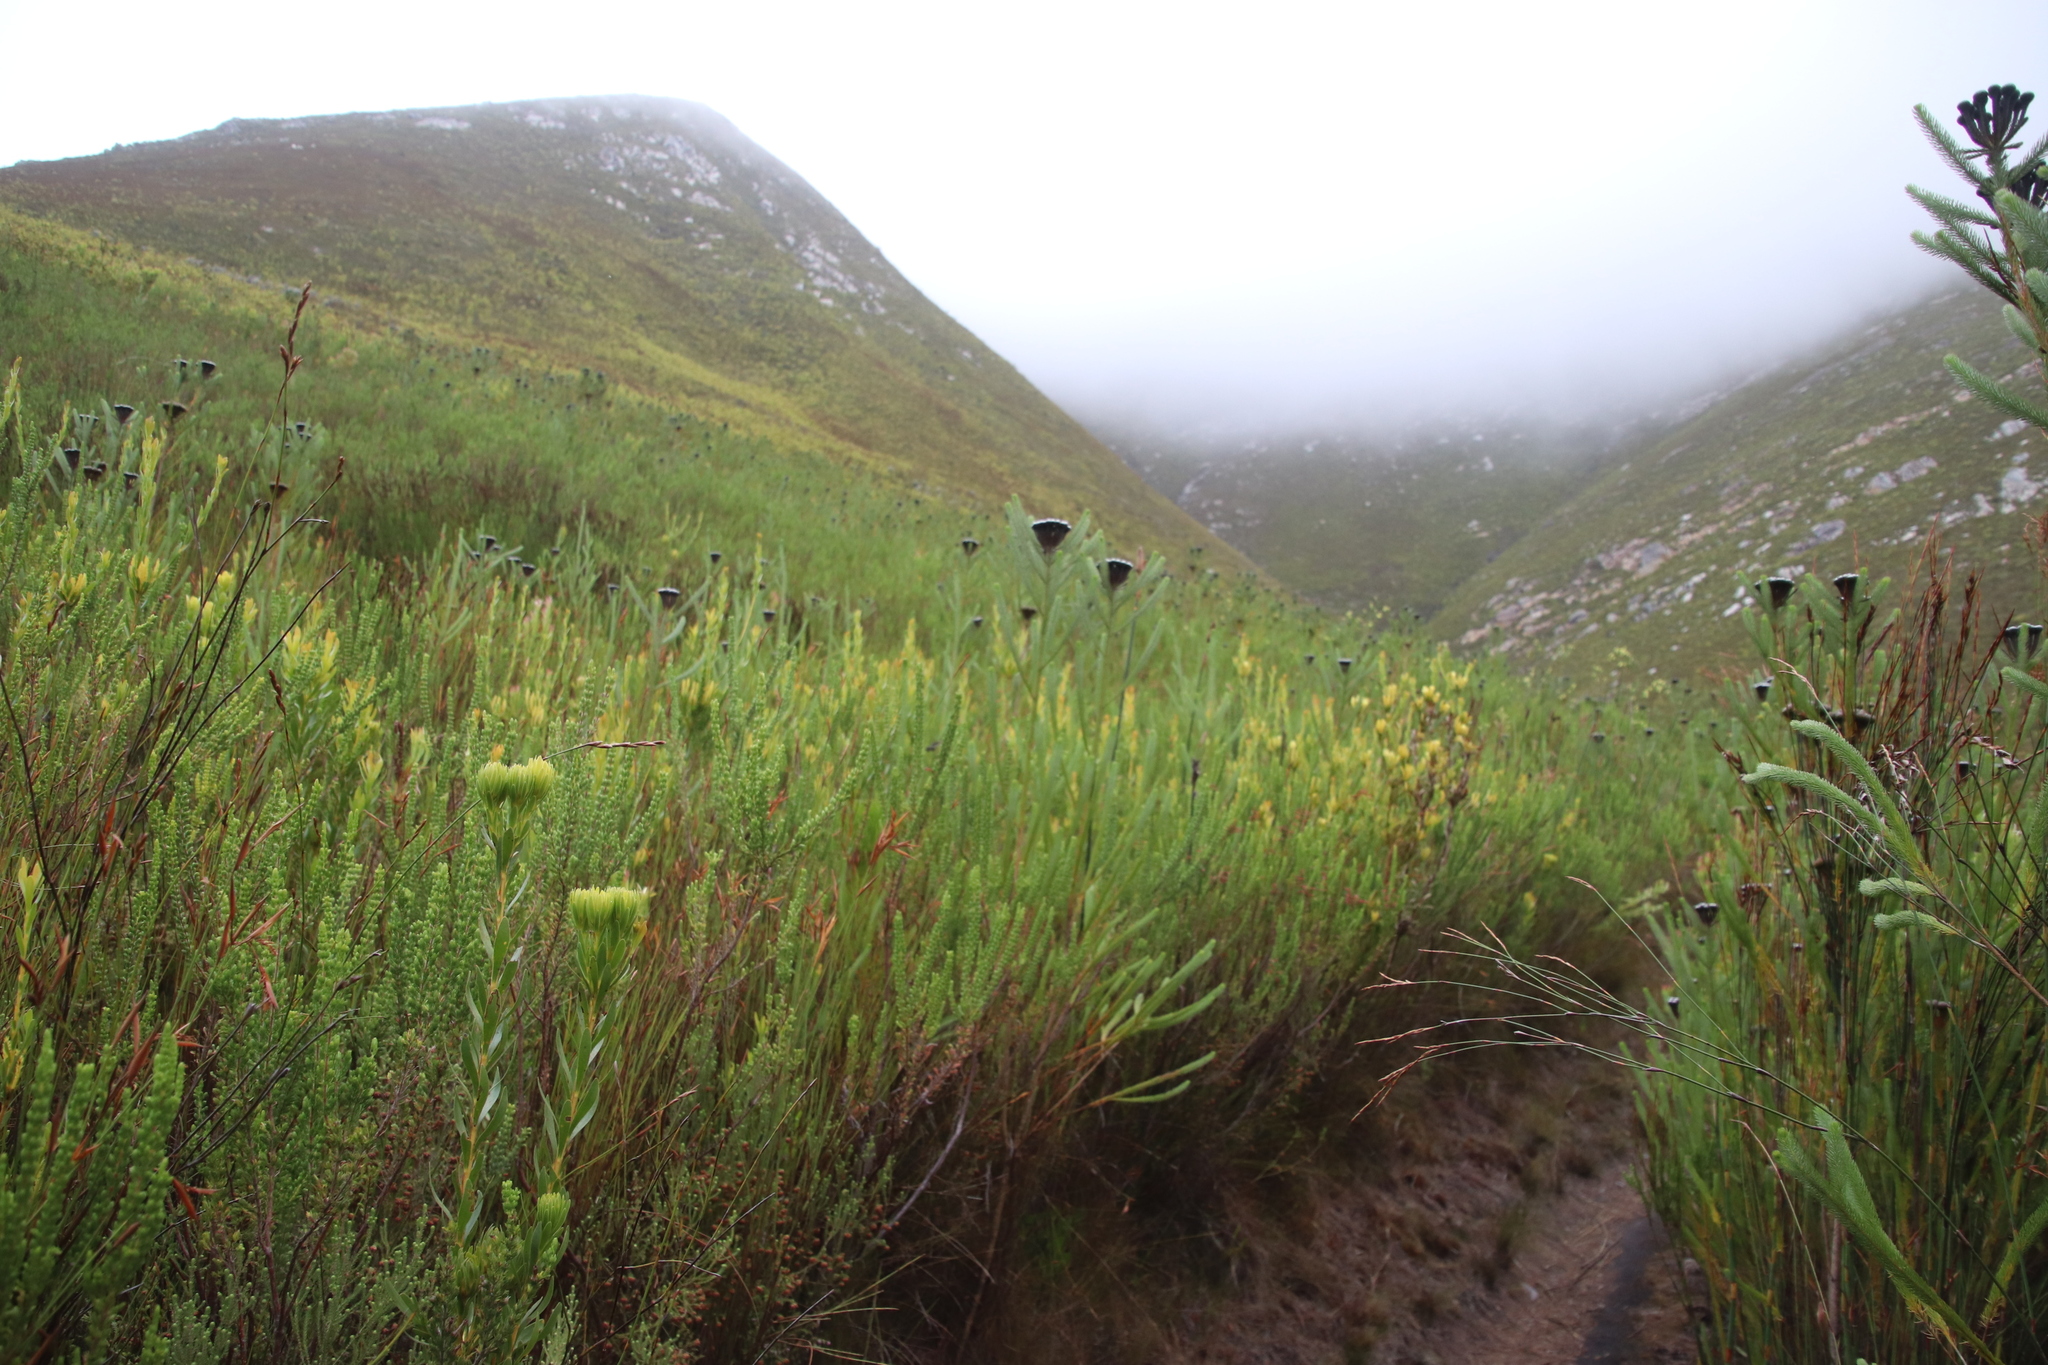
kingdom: Plantae
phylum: Tracheophyta
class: Magnoliopsida
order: Bruniales
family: Bruniaceae
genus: Berzelia
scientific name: Berzelia albiflora
